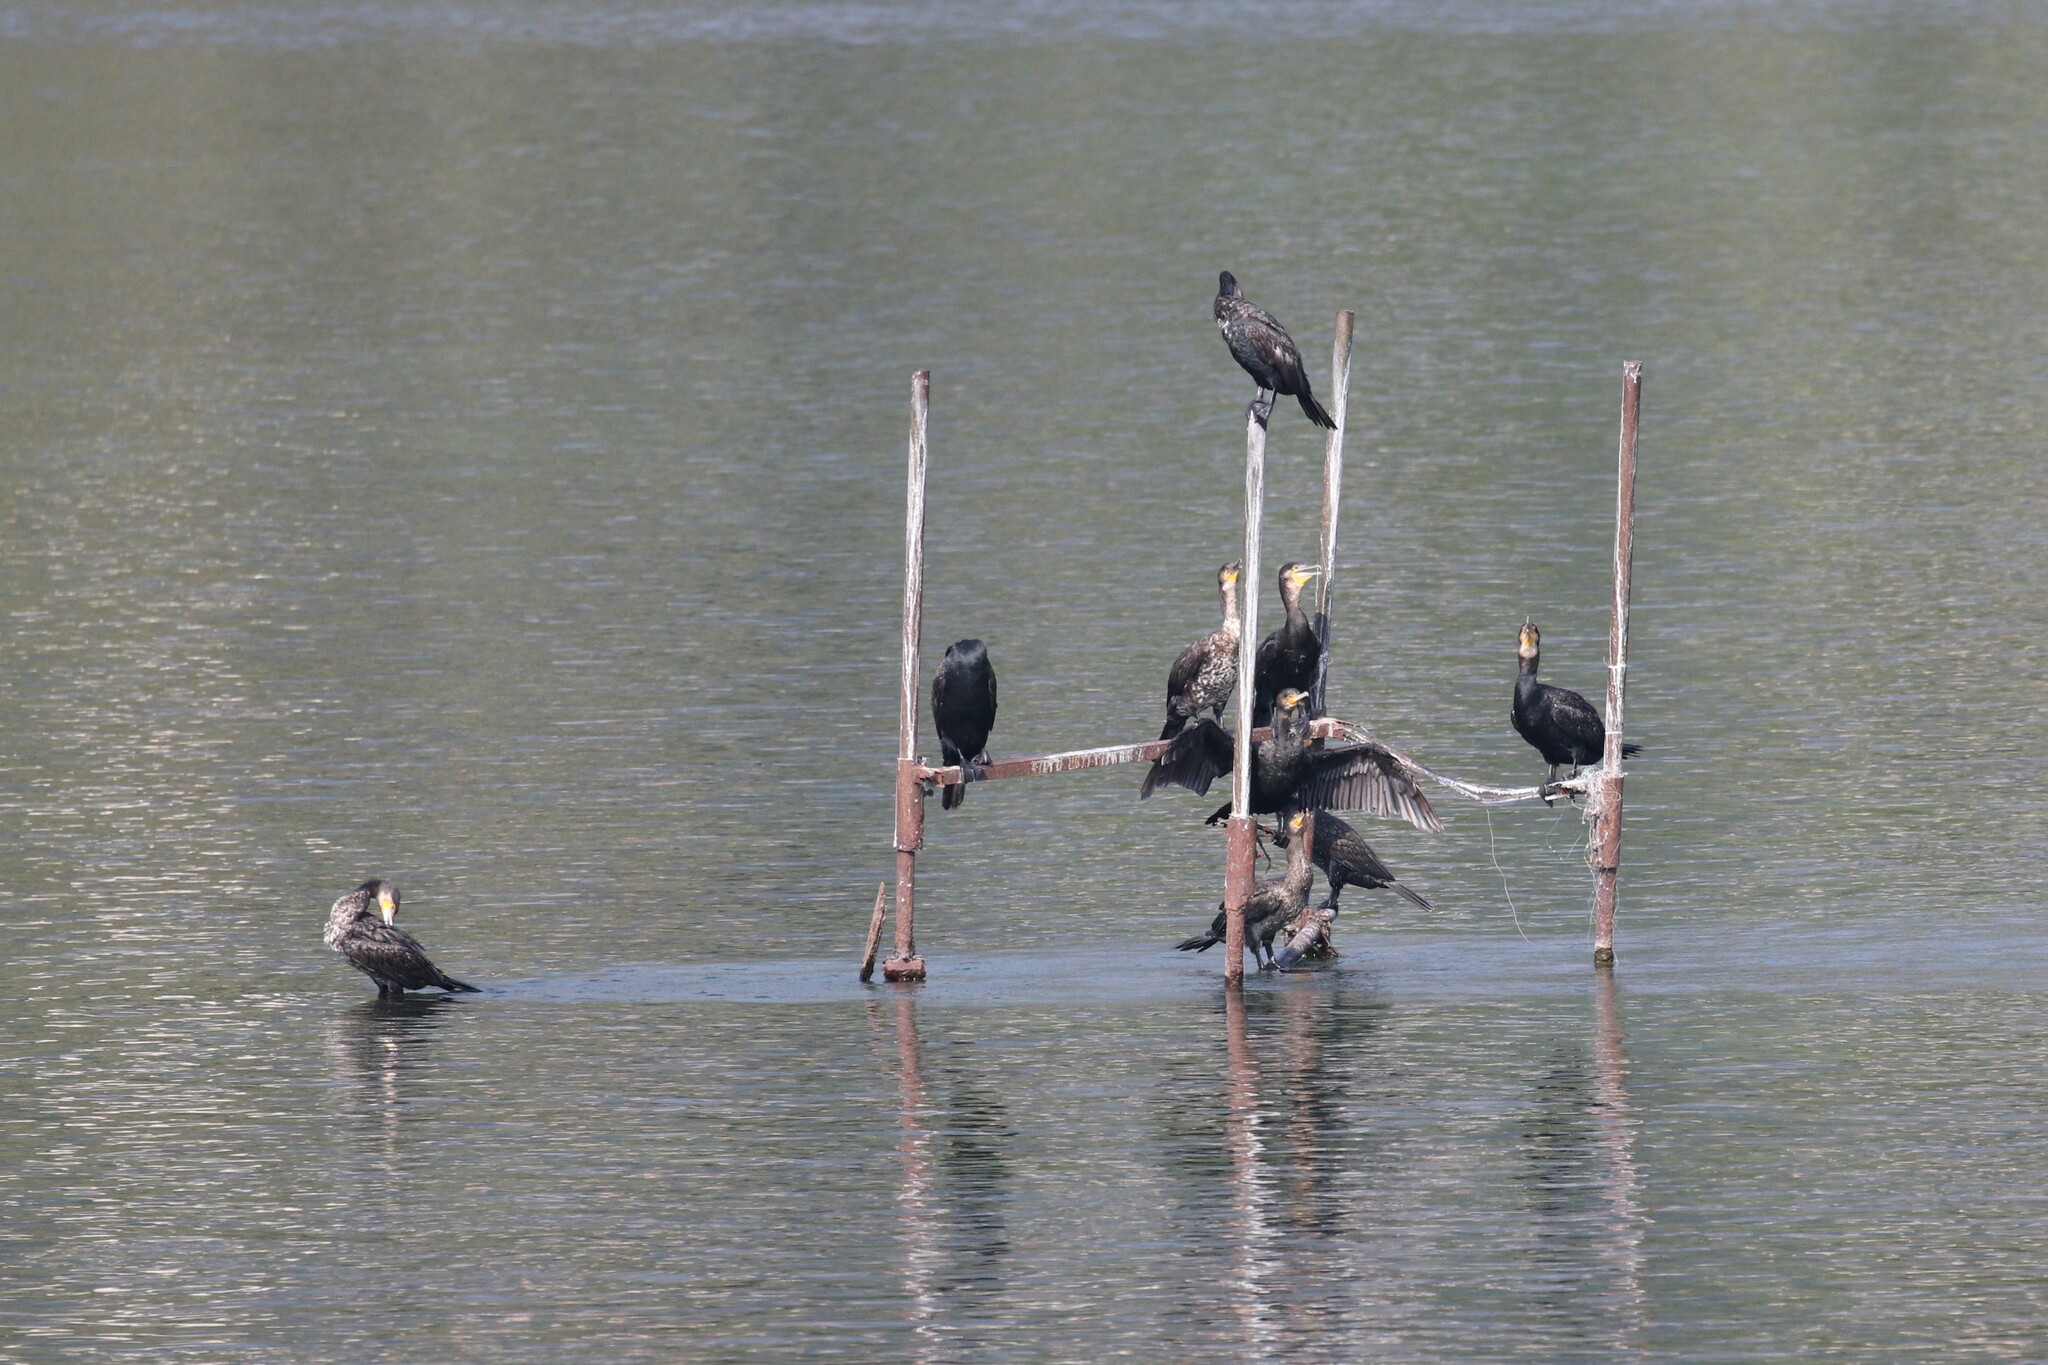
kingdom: Animalia
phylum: Chordata
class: Aves
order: Suliformes
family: Phalacrocoracidae
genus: Phalacrocorax
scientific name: Phalacrocorax carbo
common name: Great cormorant
